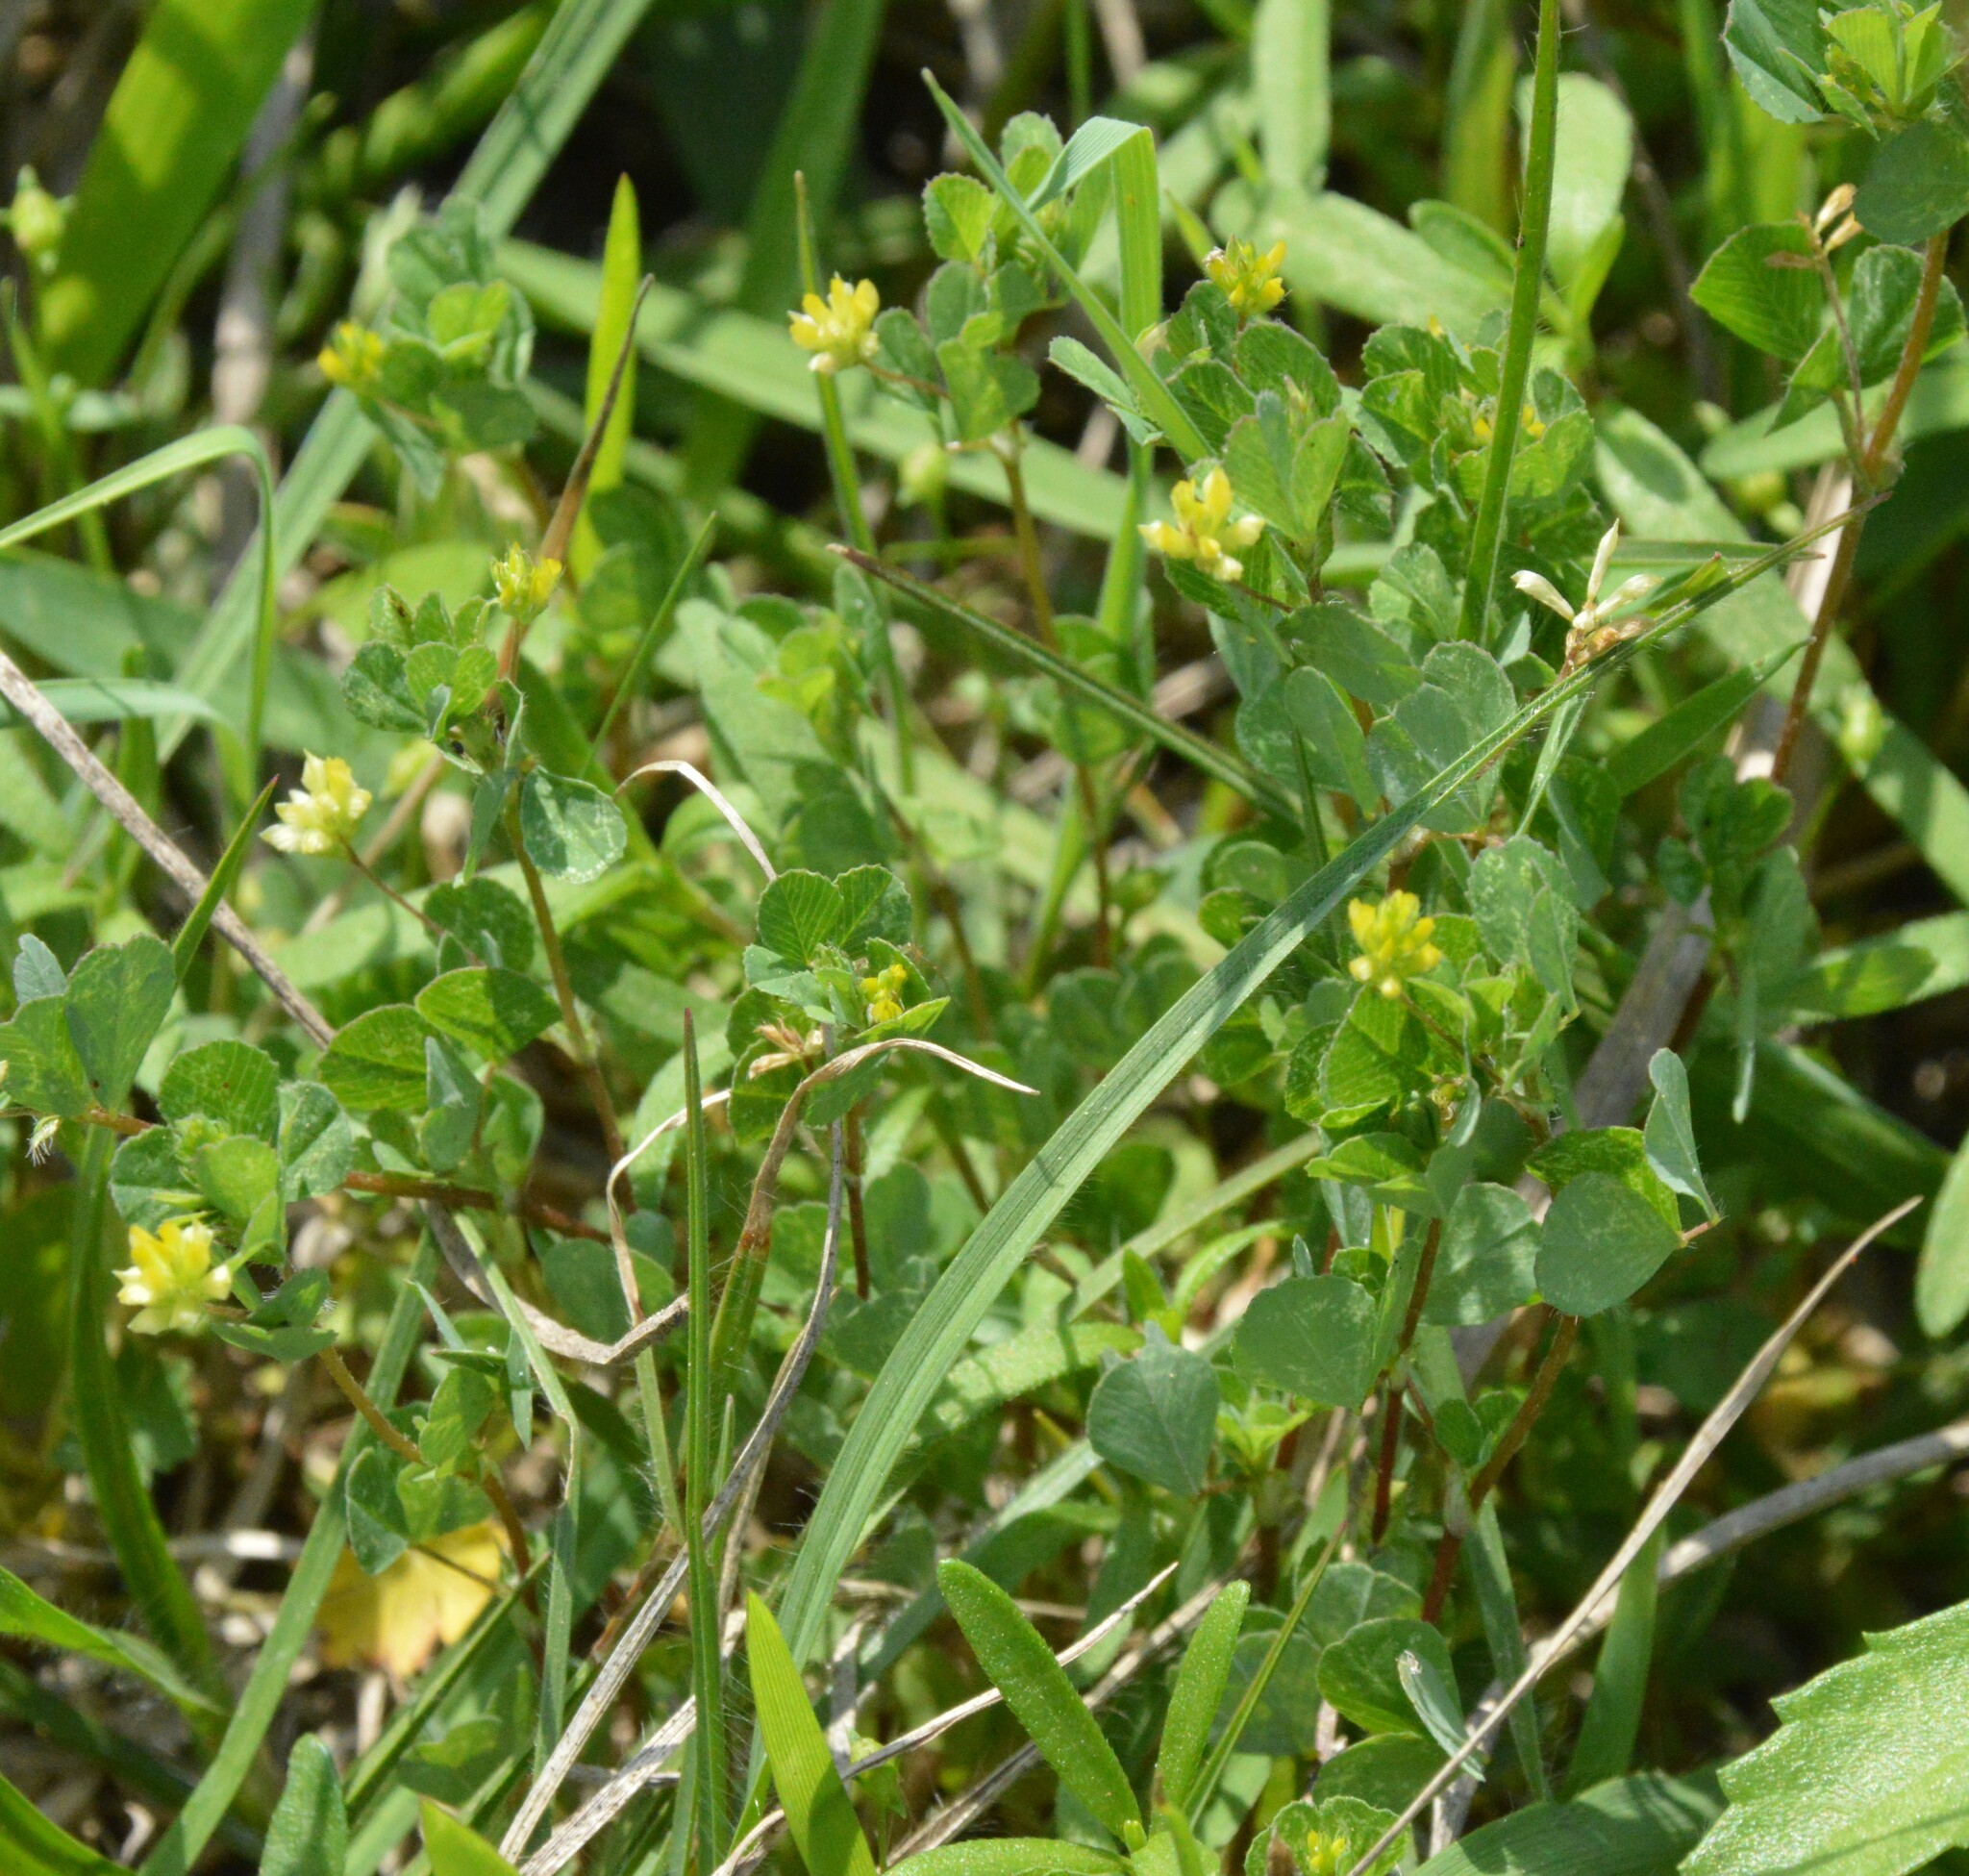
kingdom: Plantae
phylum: Tracheophyta
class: Magnoliopsida
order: Fabales
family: Fabaceae
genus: Trifolium
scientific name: Trifolium dubium
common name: Suckling clover
